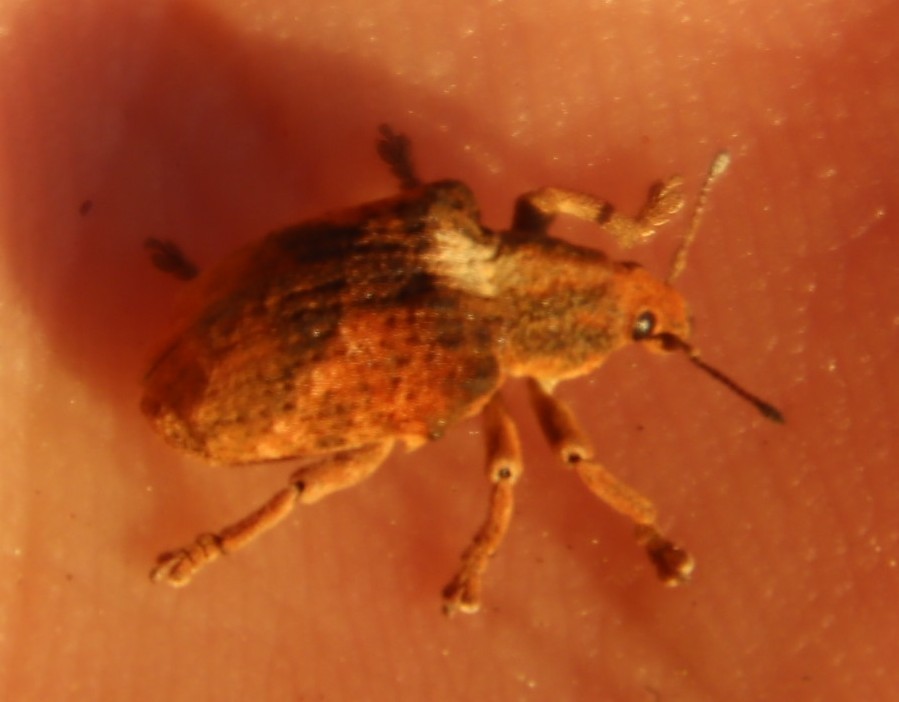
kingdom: Animalia
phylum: Arthropoda
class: Insecta
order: Coleoptera
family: Curculionidae
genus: Gonipterus
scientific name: Gonipterus
